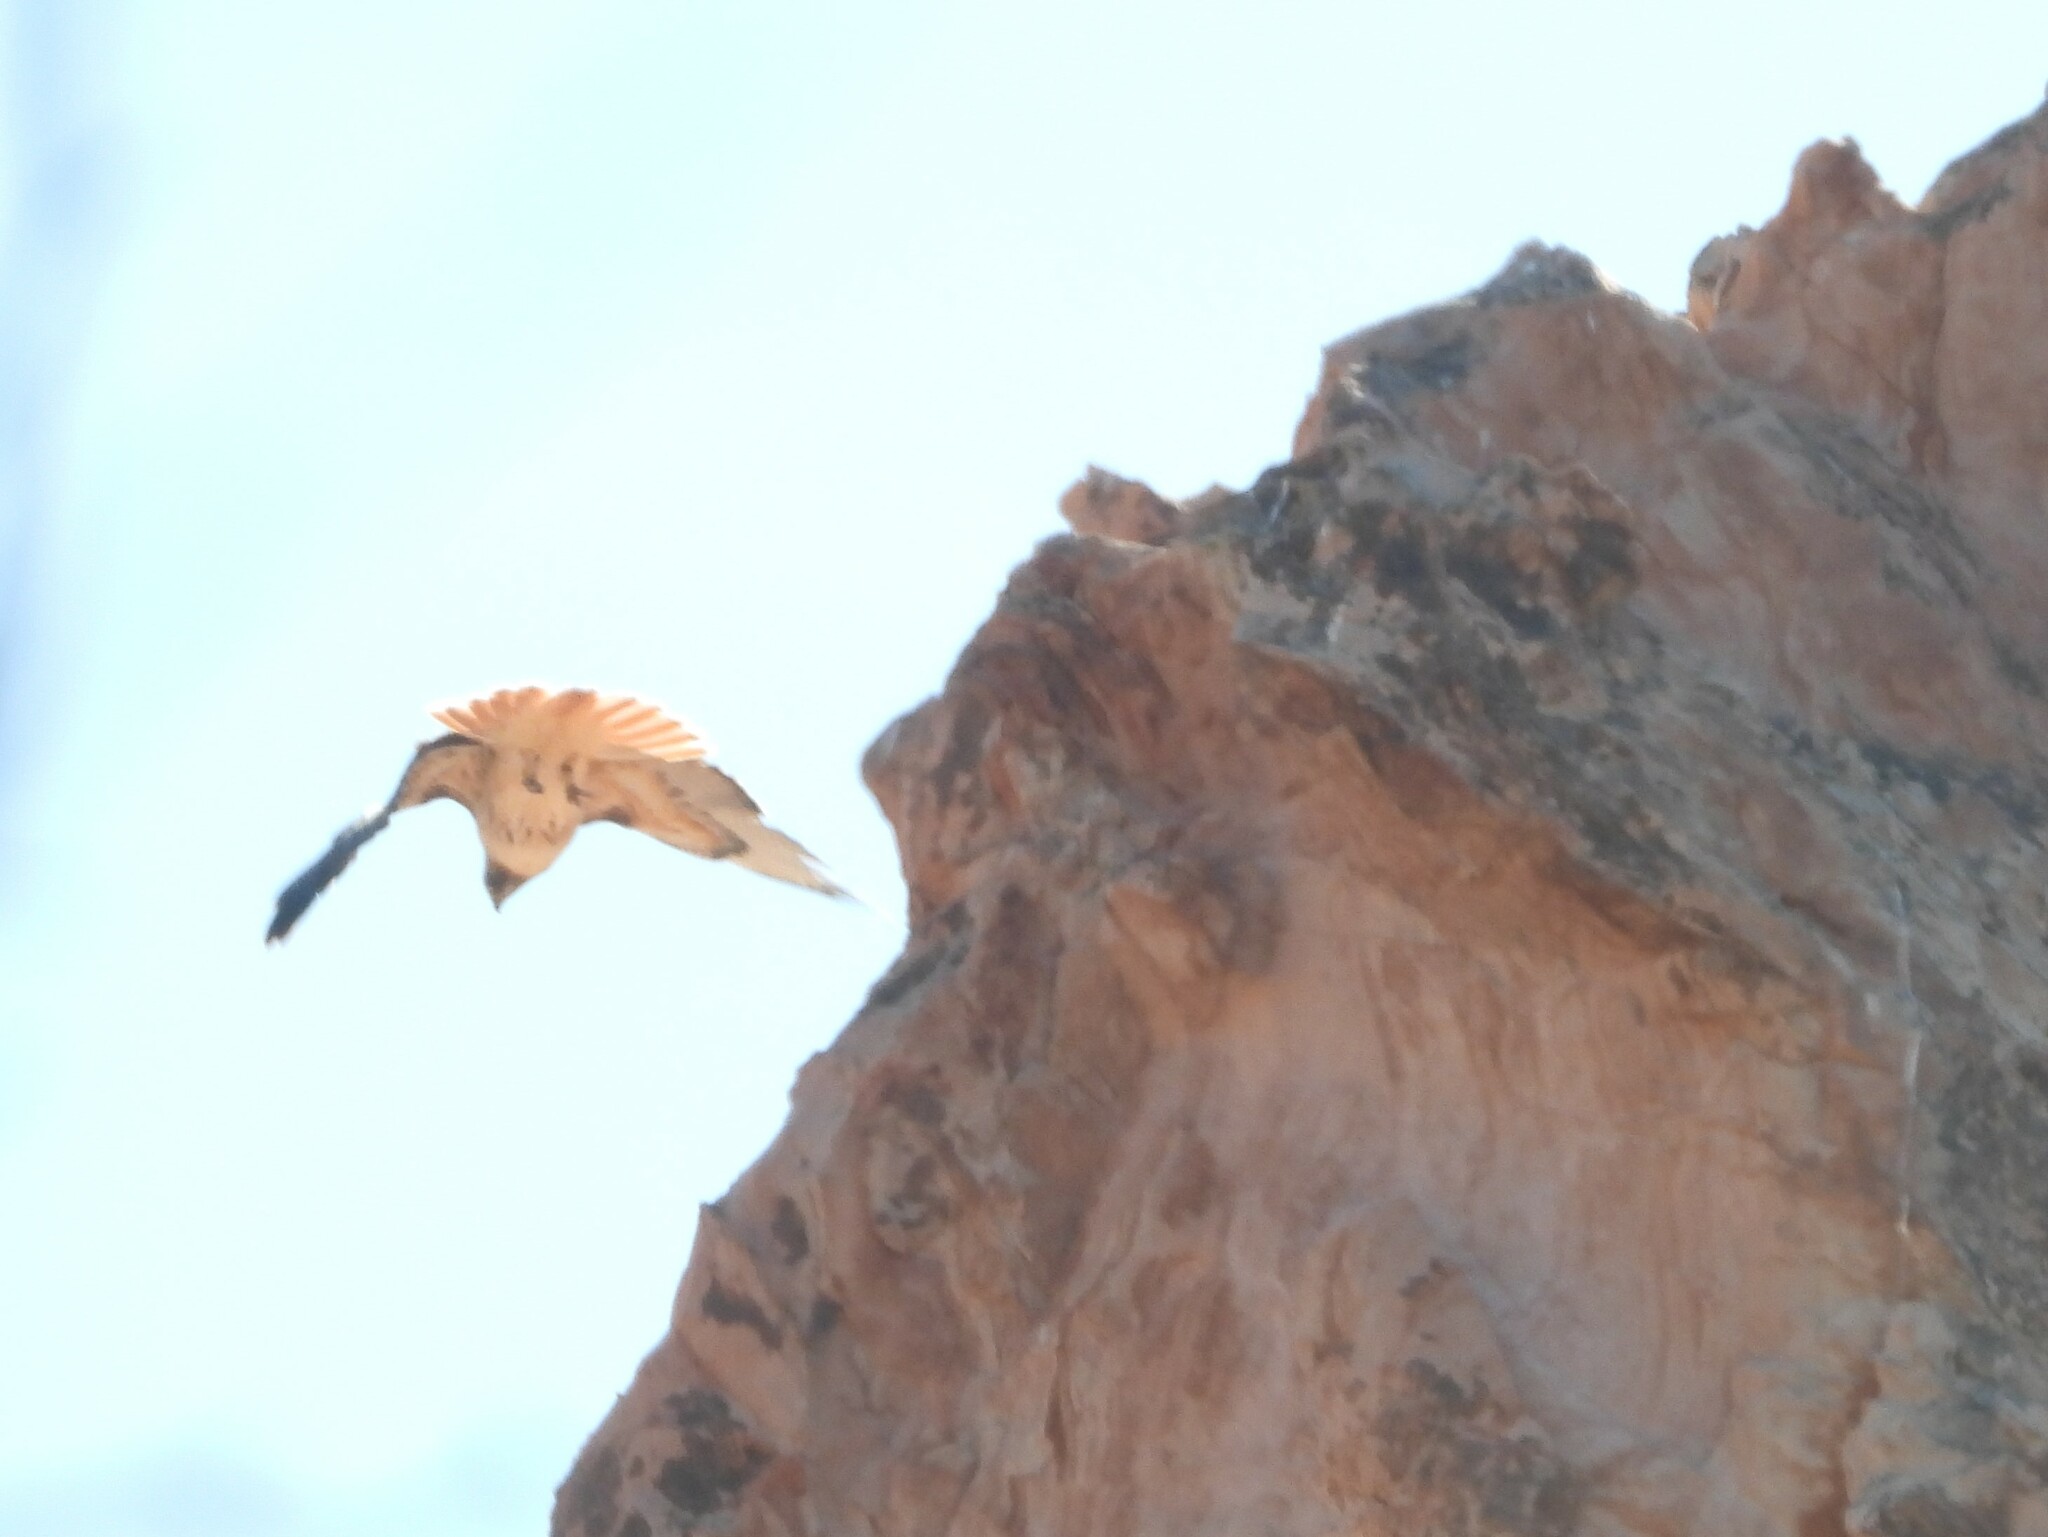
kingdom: Animalia
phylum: Chordata
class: Aves
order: Accipitriformes
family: Accipitridae
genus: Buteo
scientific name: Buteo jamaicensis
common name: Red-tailed hawk
